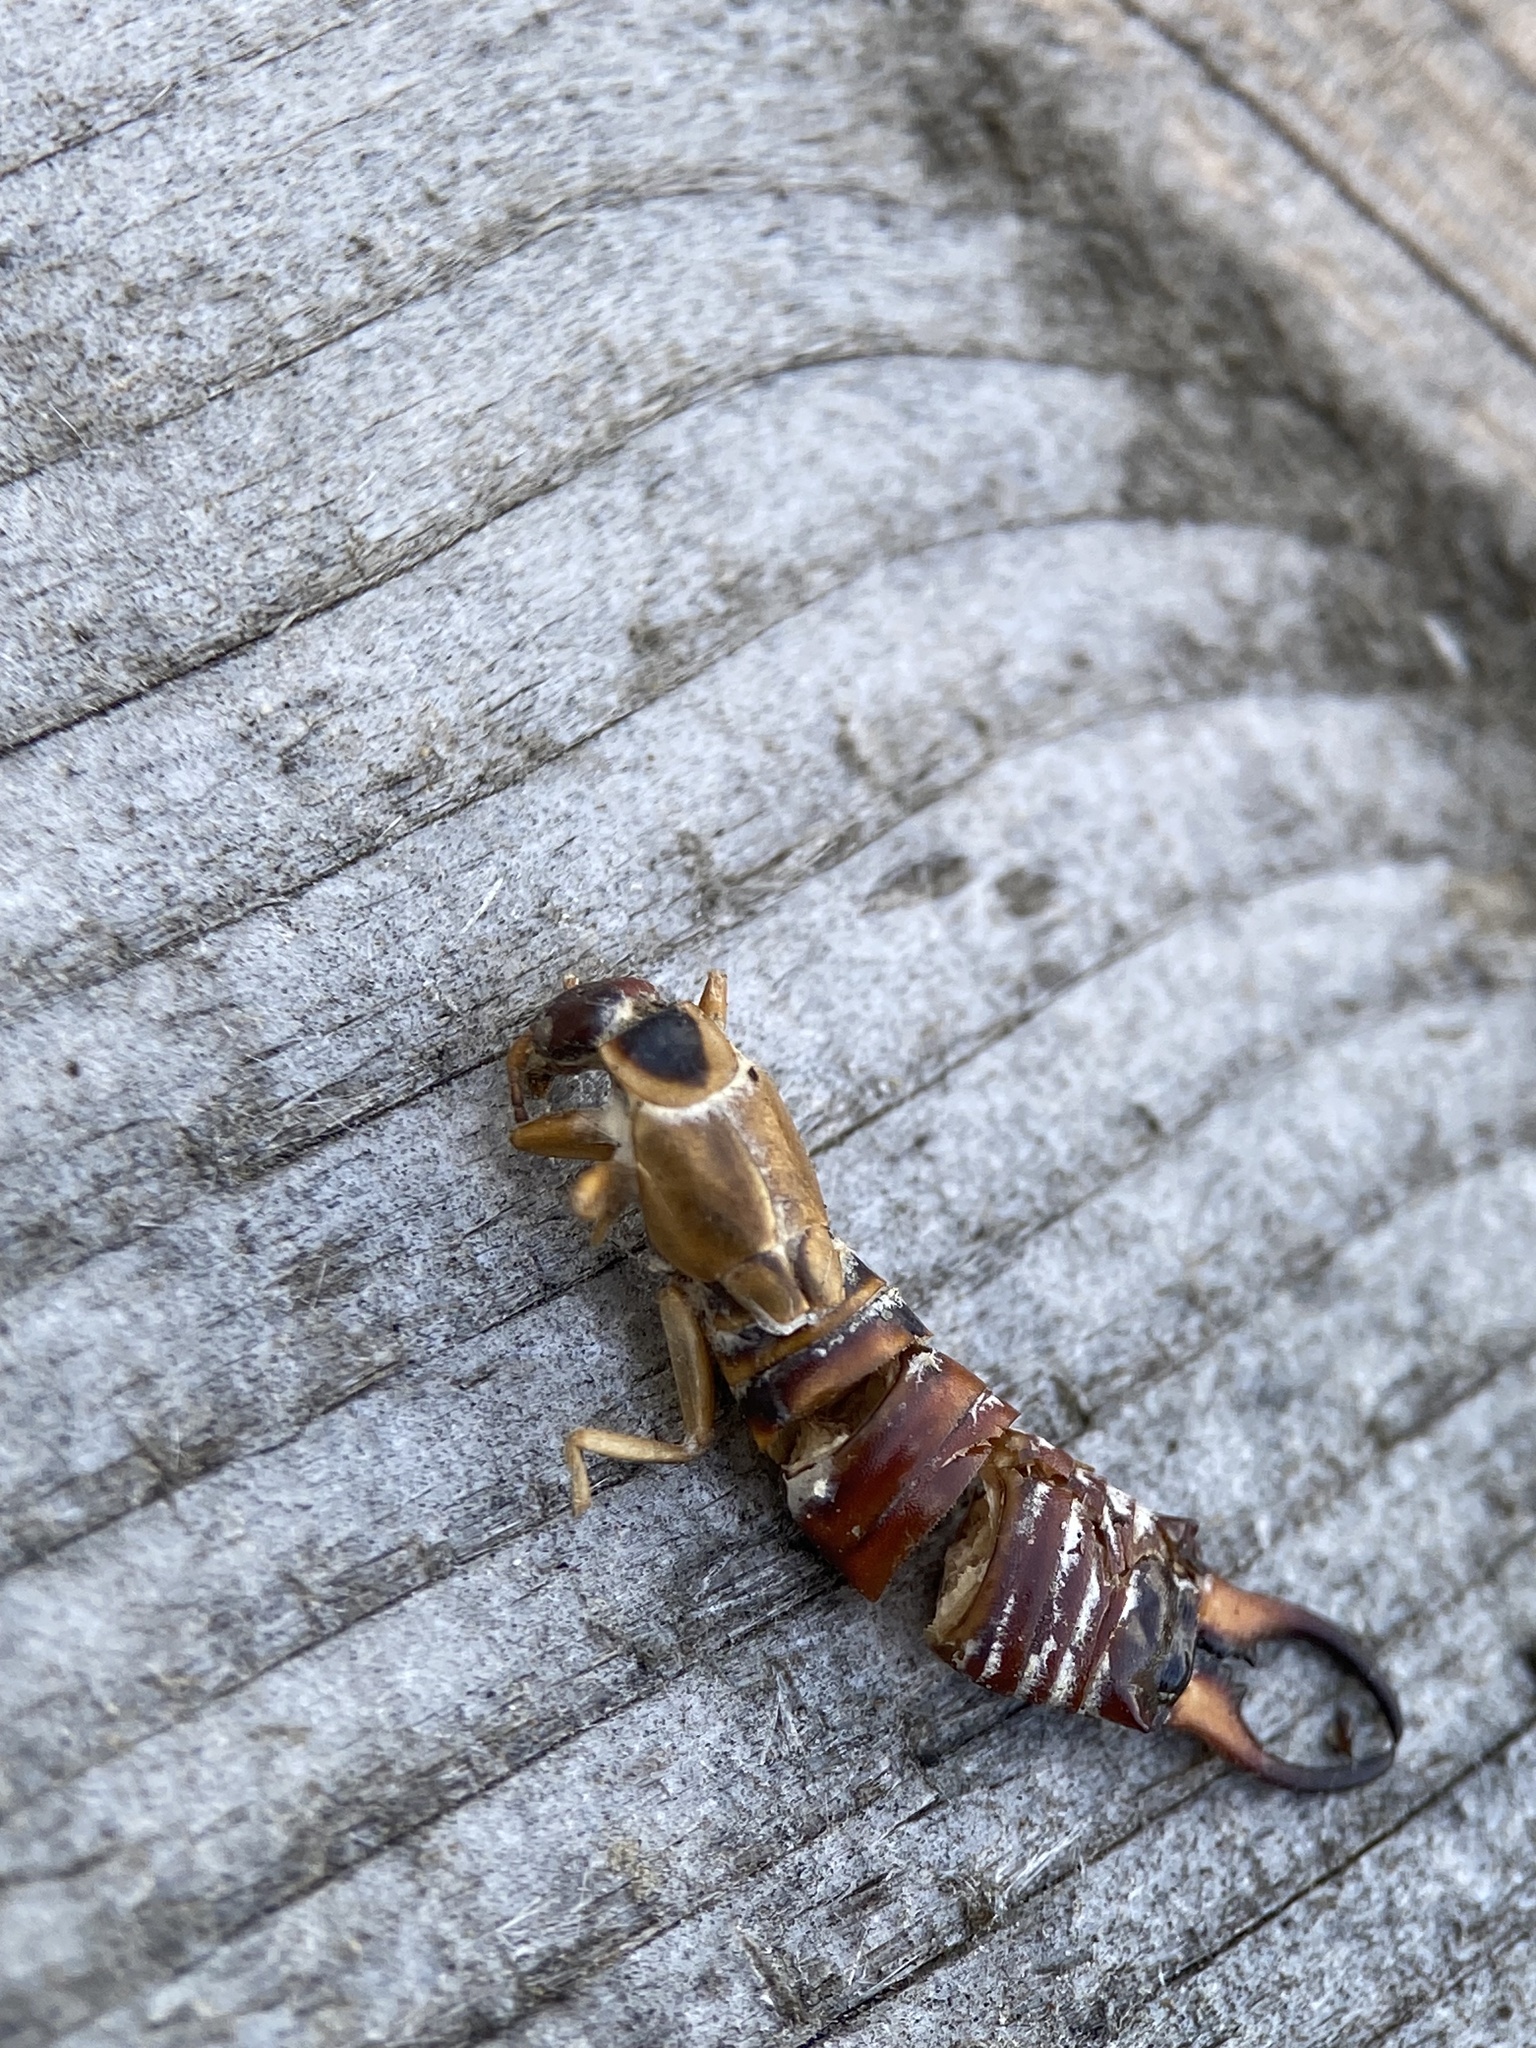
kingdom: Animalia
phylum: Arthropoda
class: Insecta
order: Dermaptera
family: Forficulidae
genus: Forficula
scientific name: Forficula dentata
